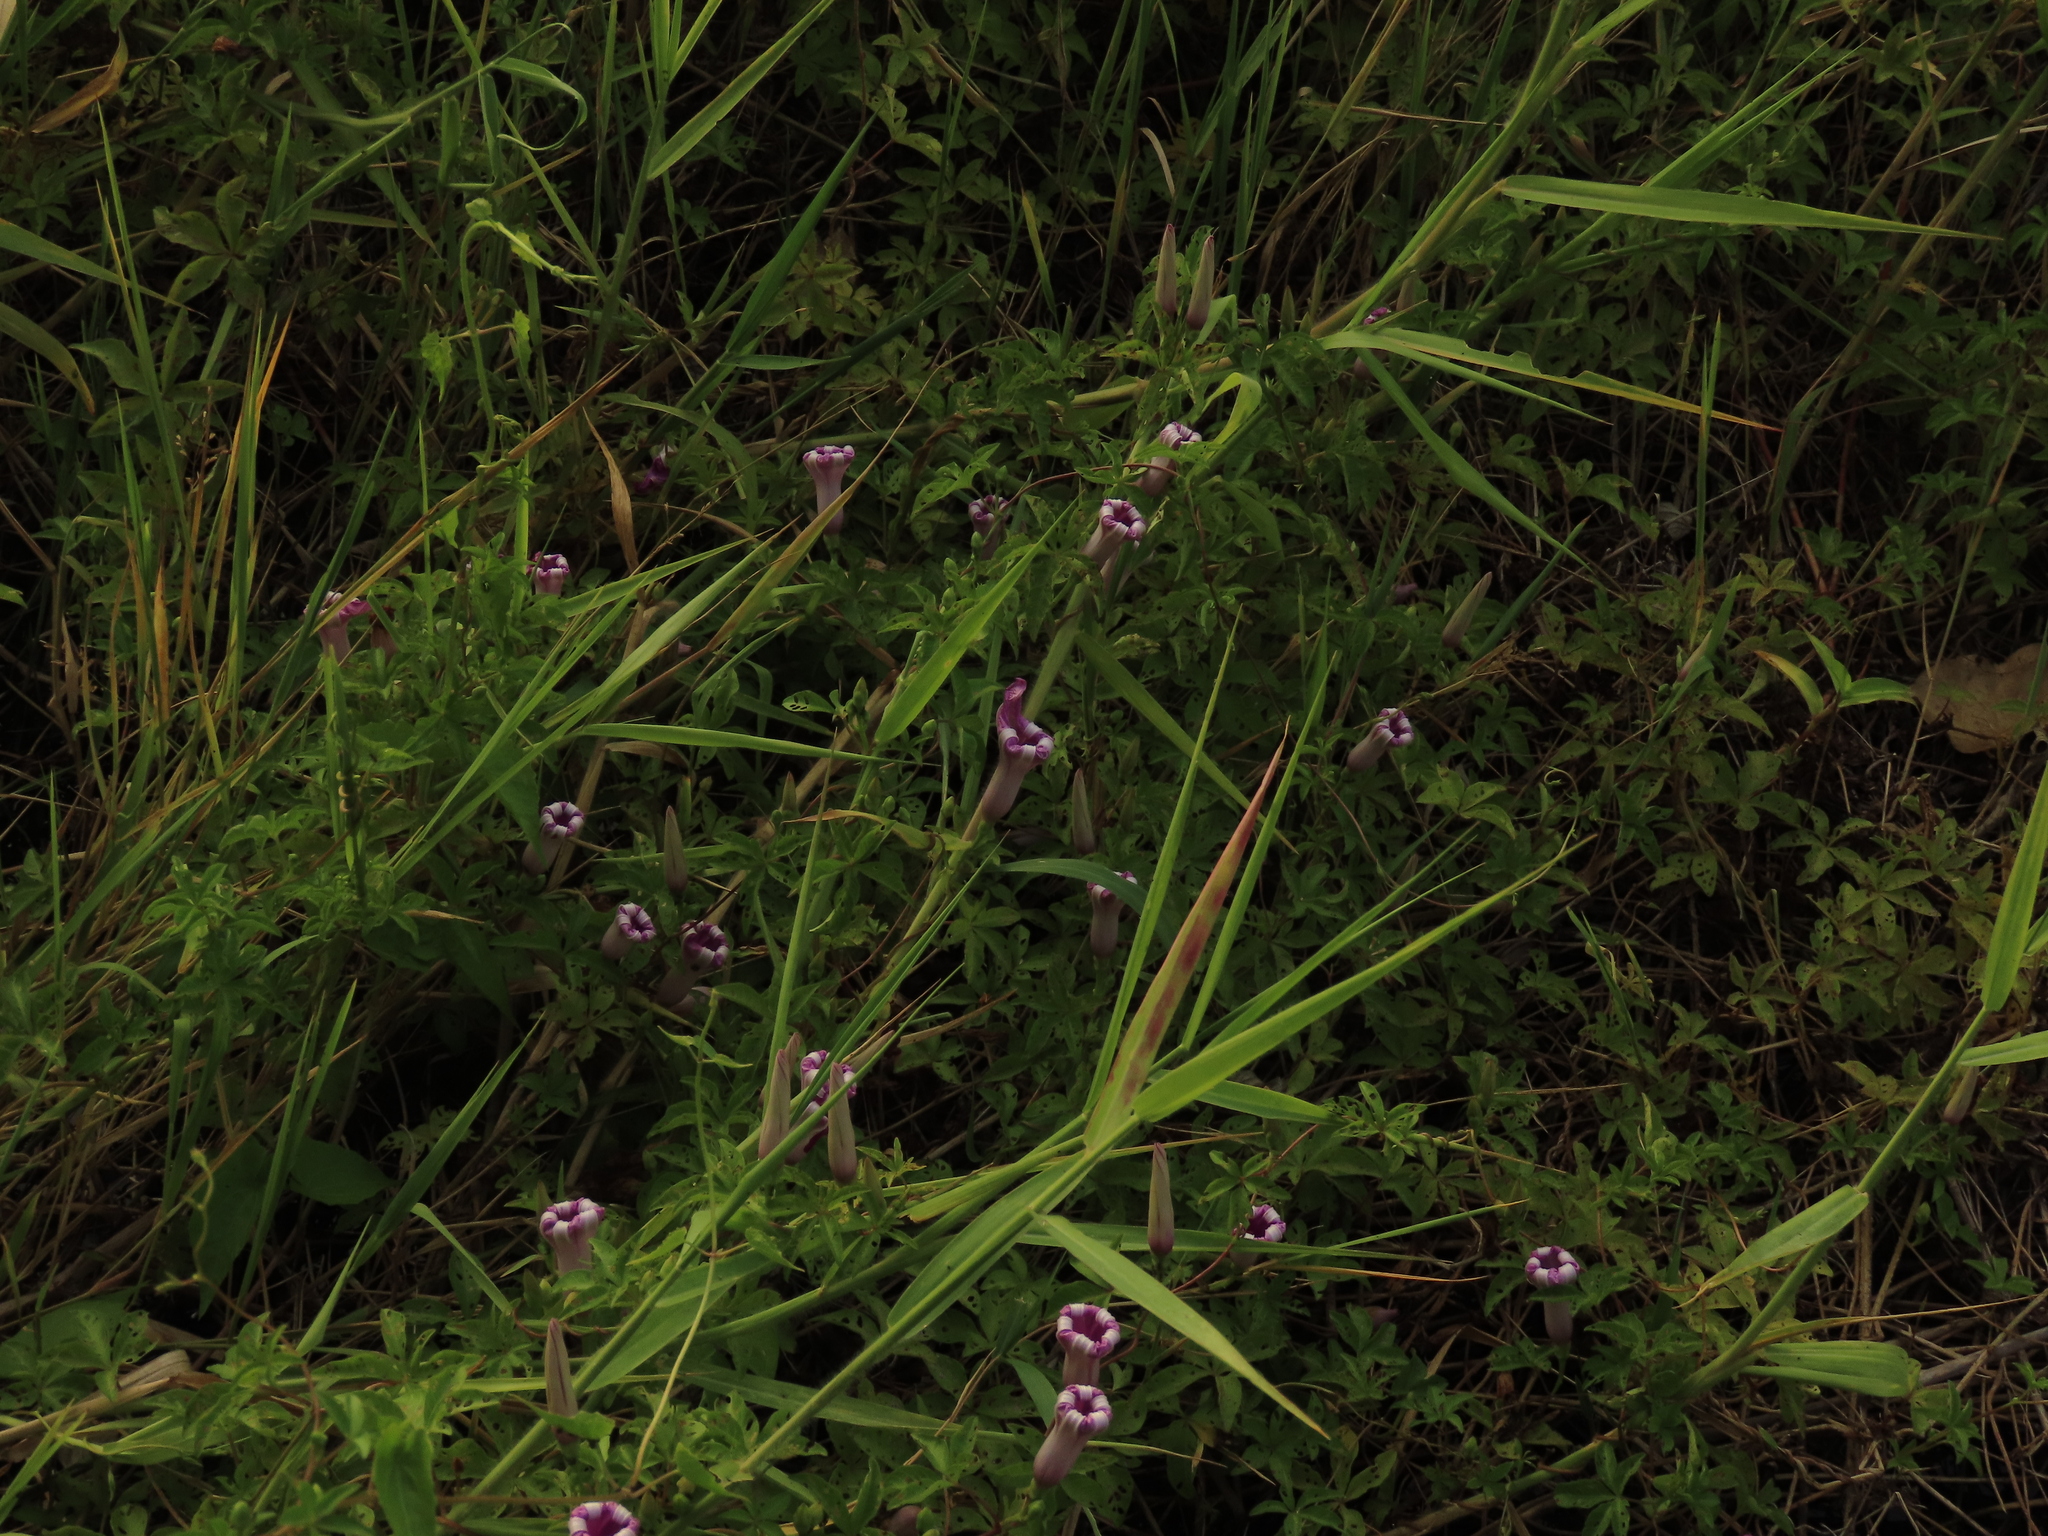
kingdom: Plantae
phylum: Tracheophyta
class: Magnoliopsida
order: Solanales
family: Convolvulaceae
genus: Ipomoea
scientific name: Ipomoea cairica
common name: Mile a minute vine
